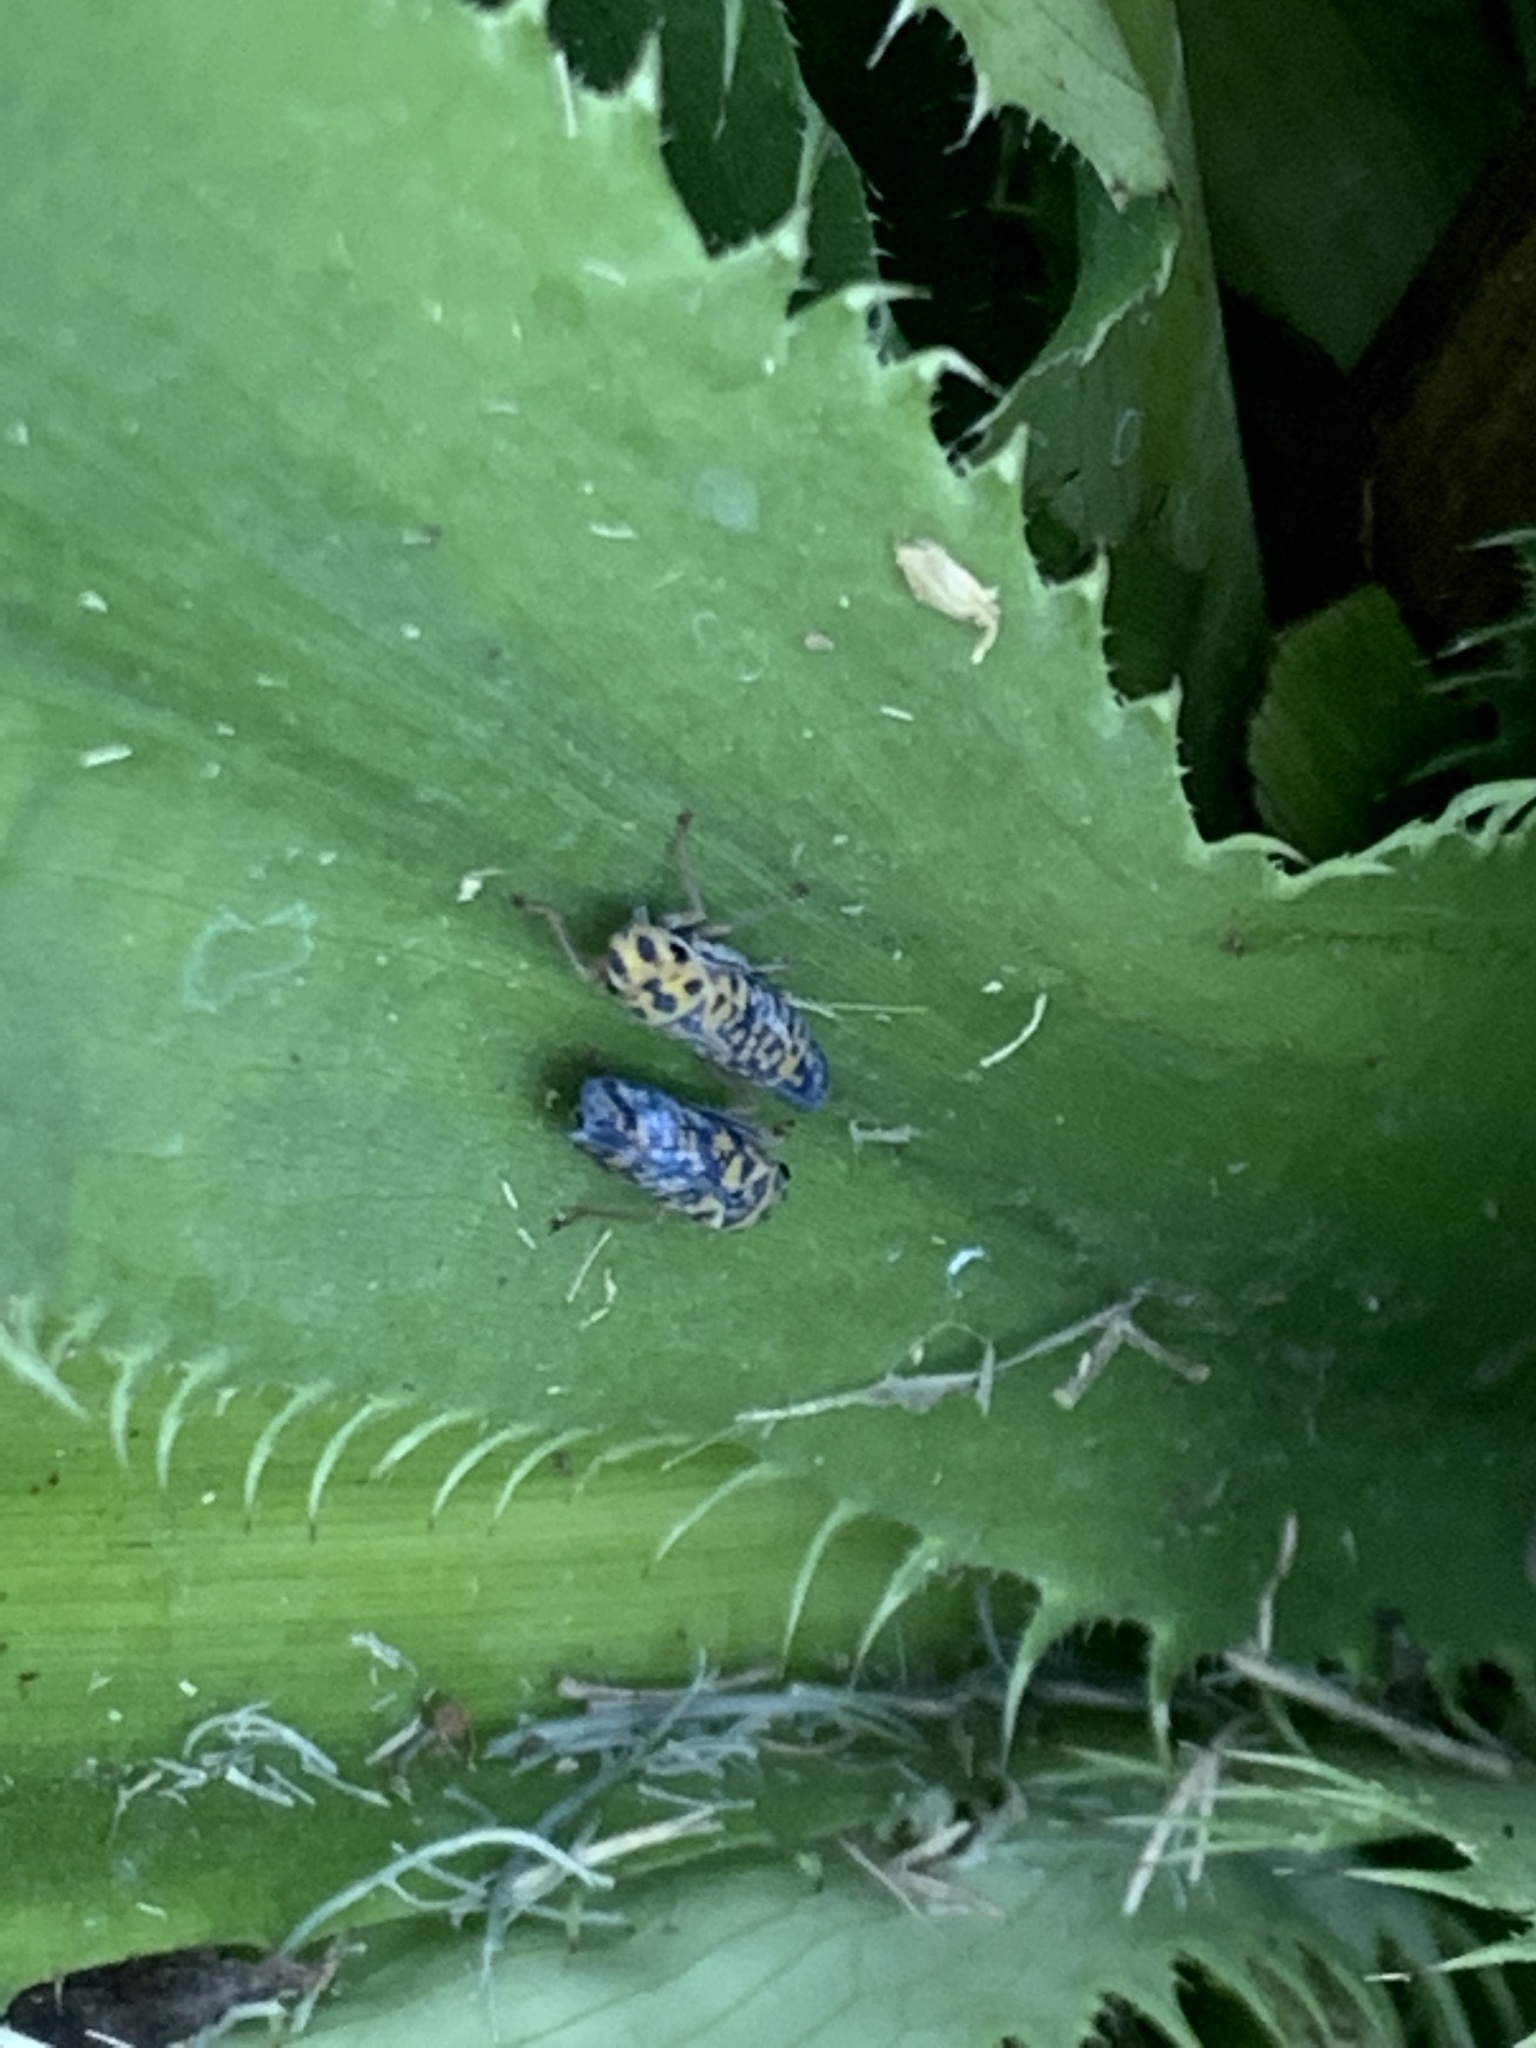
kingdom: Animalia
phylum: Arthropoda
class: Insecta
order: Hemiptera
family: Cicadellidae
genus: Pawiloma
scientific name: Pawiloma victima
